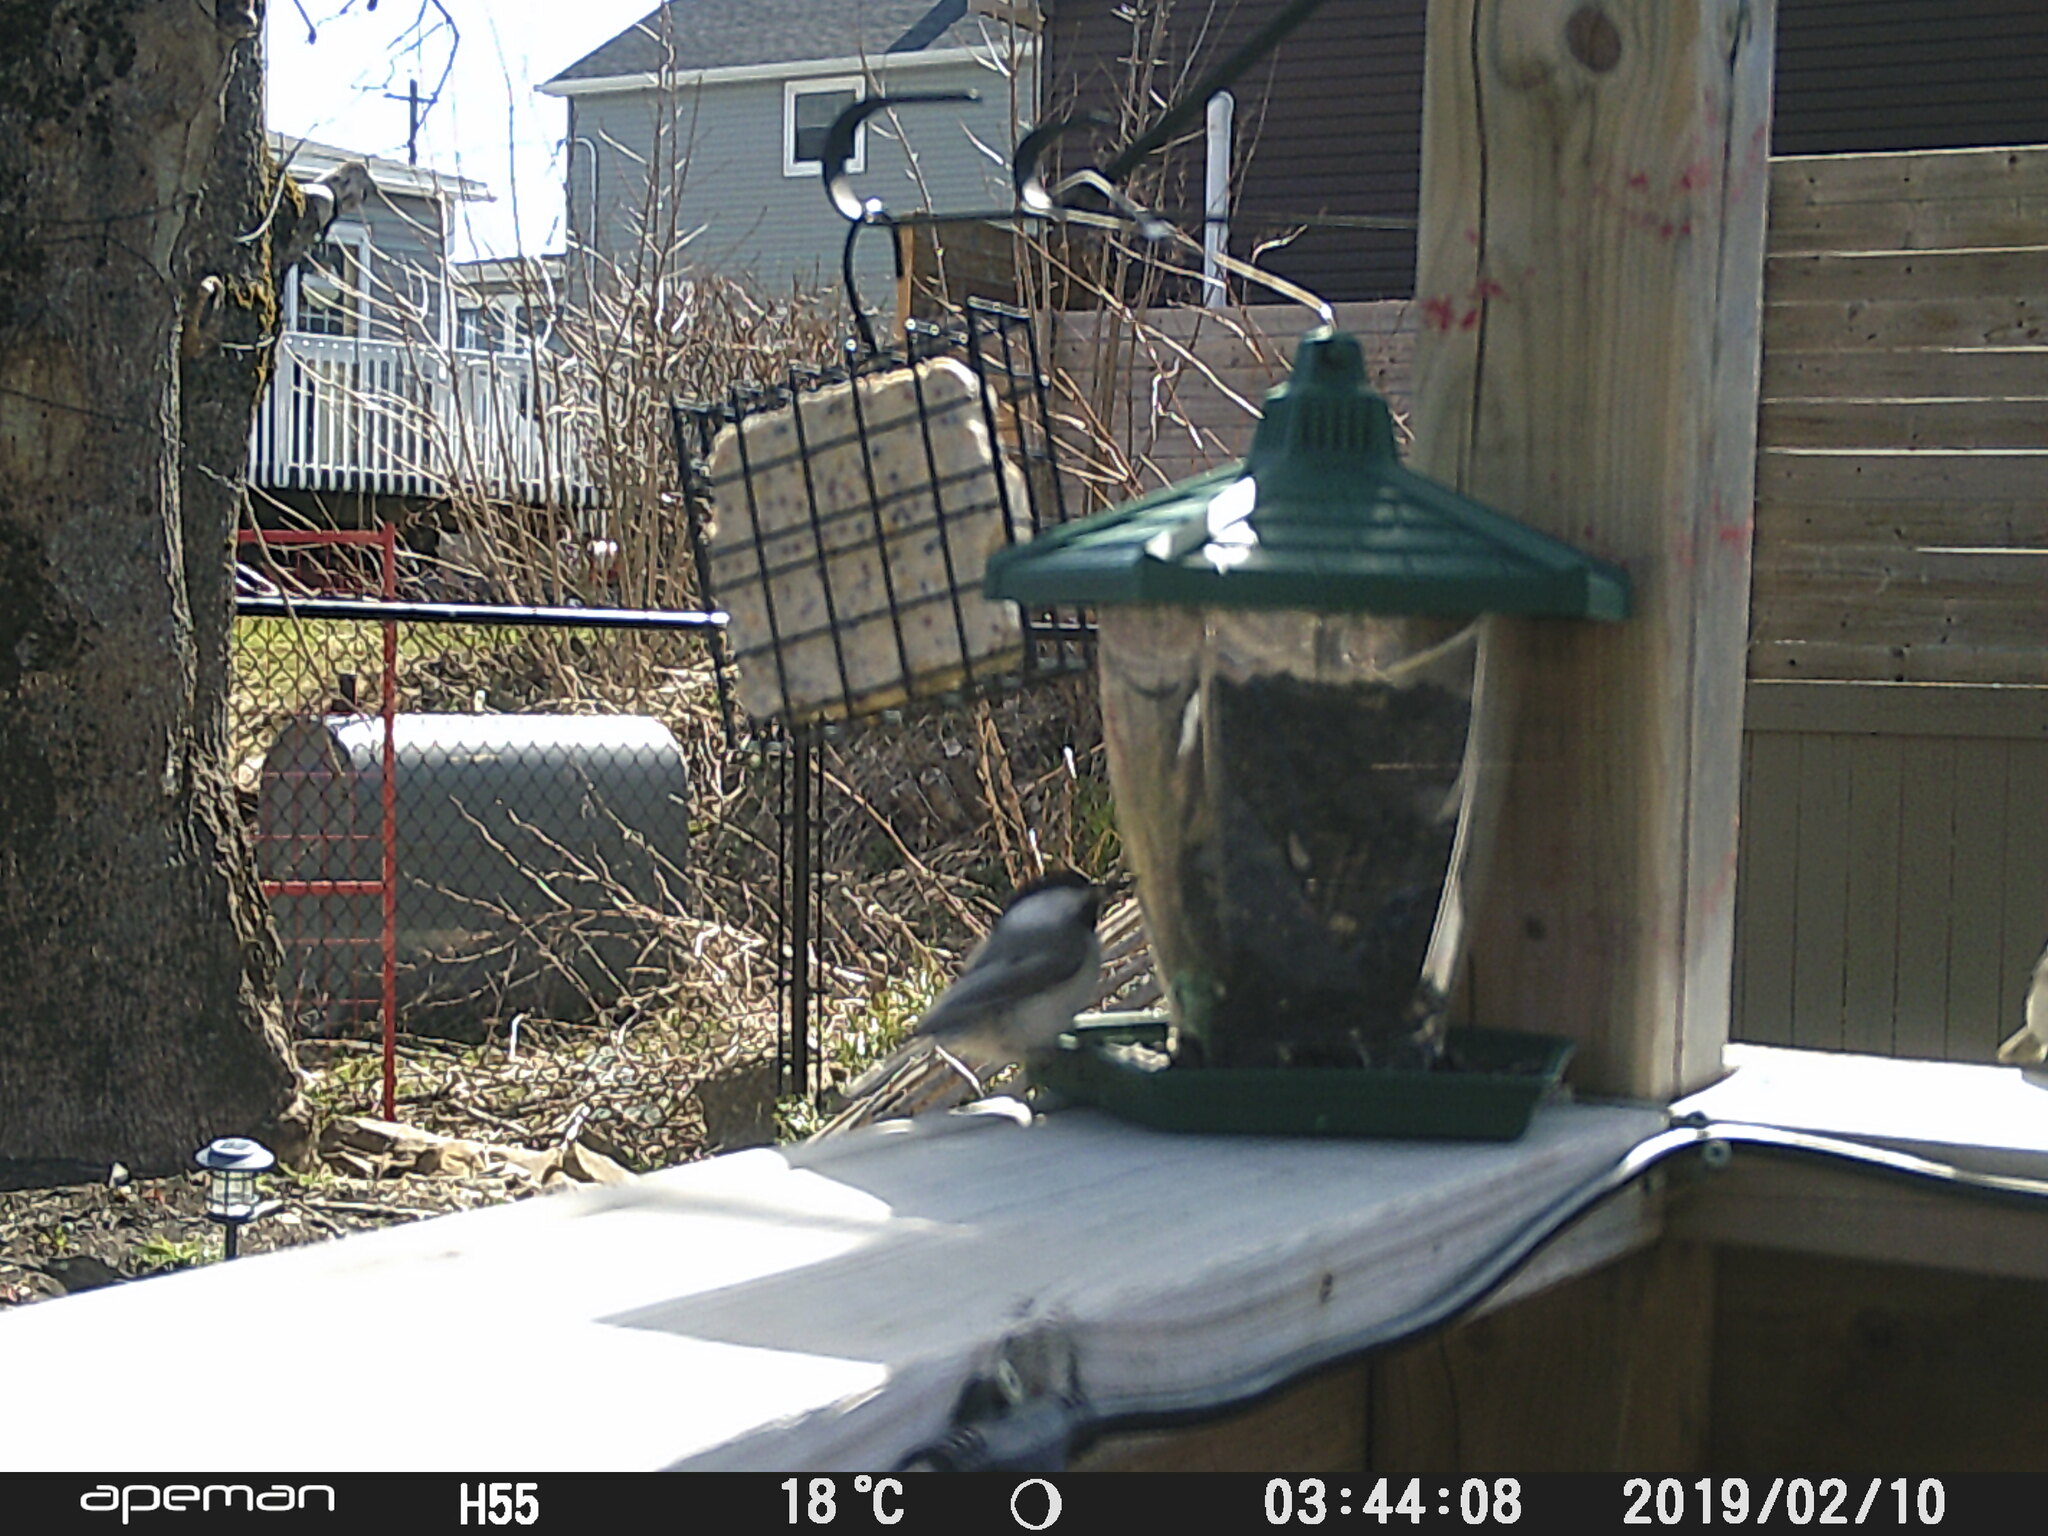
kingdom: Animalia
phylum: Chordata
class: Aves
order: Passeriformes
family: Paridae
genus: Poecile
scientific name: Poecile atricapillus
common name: Black-capped chickadee
